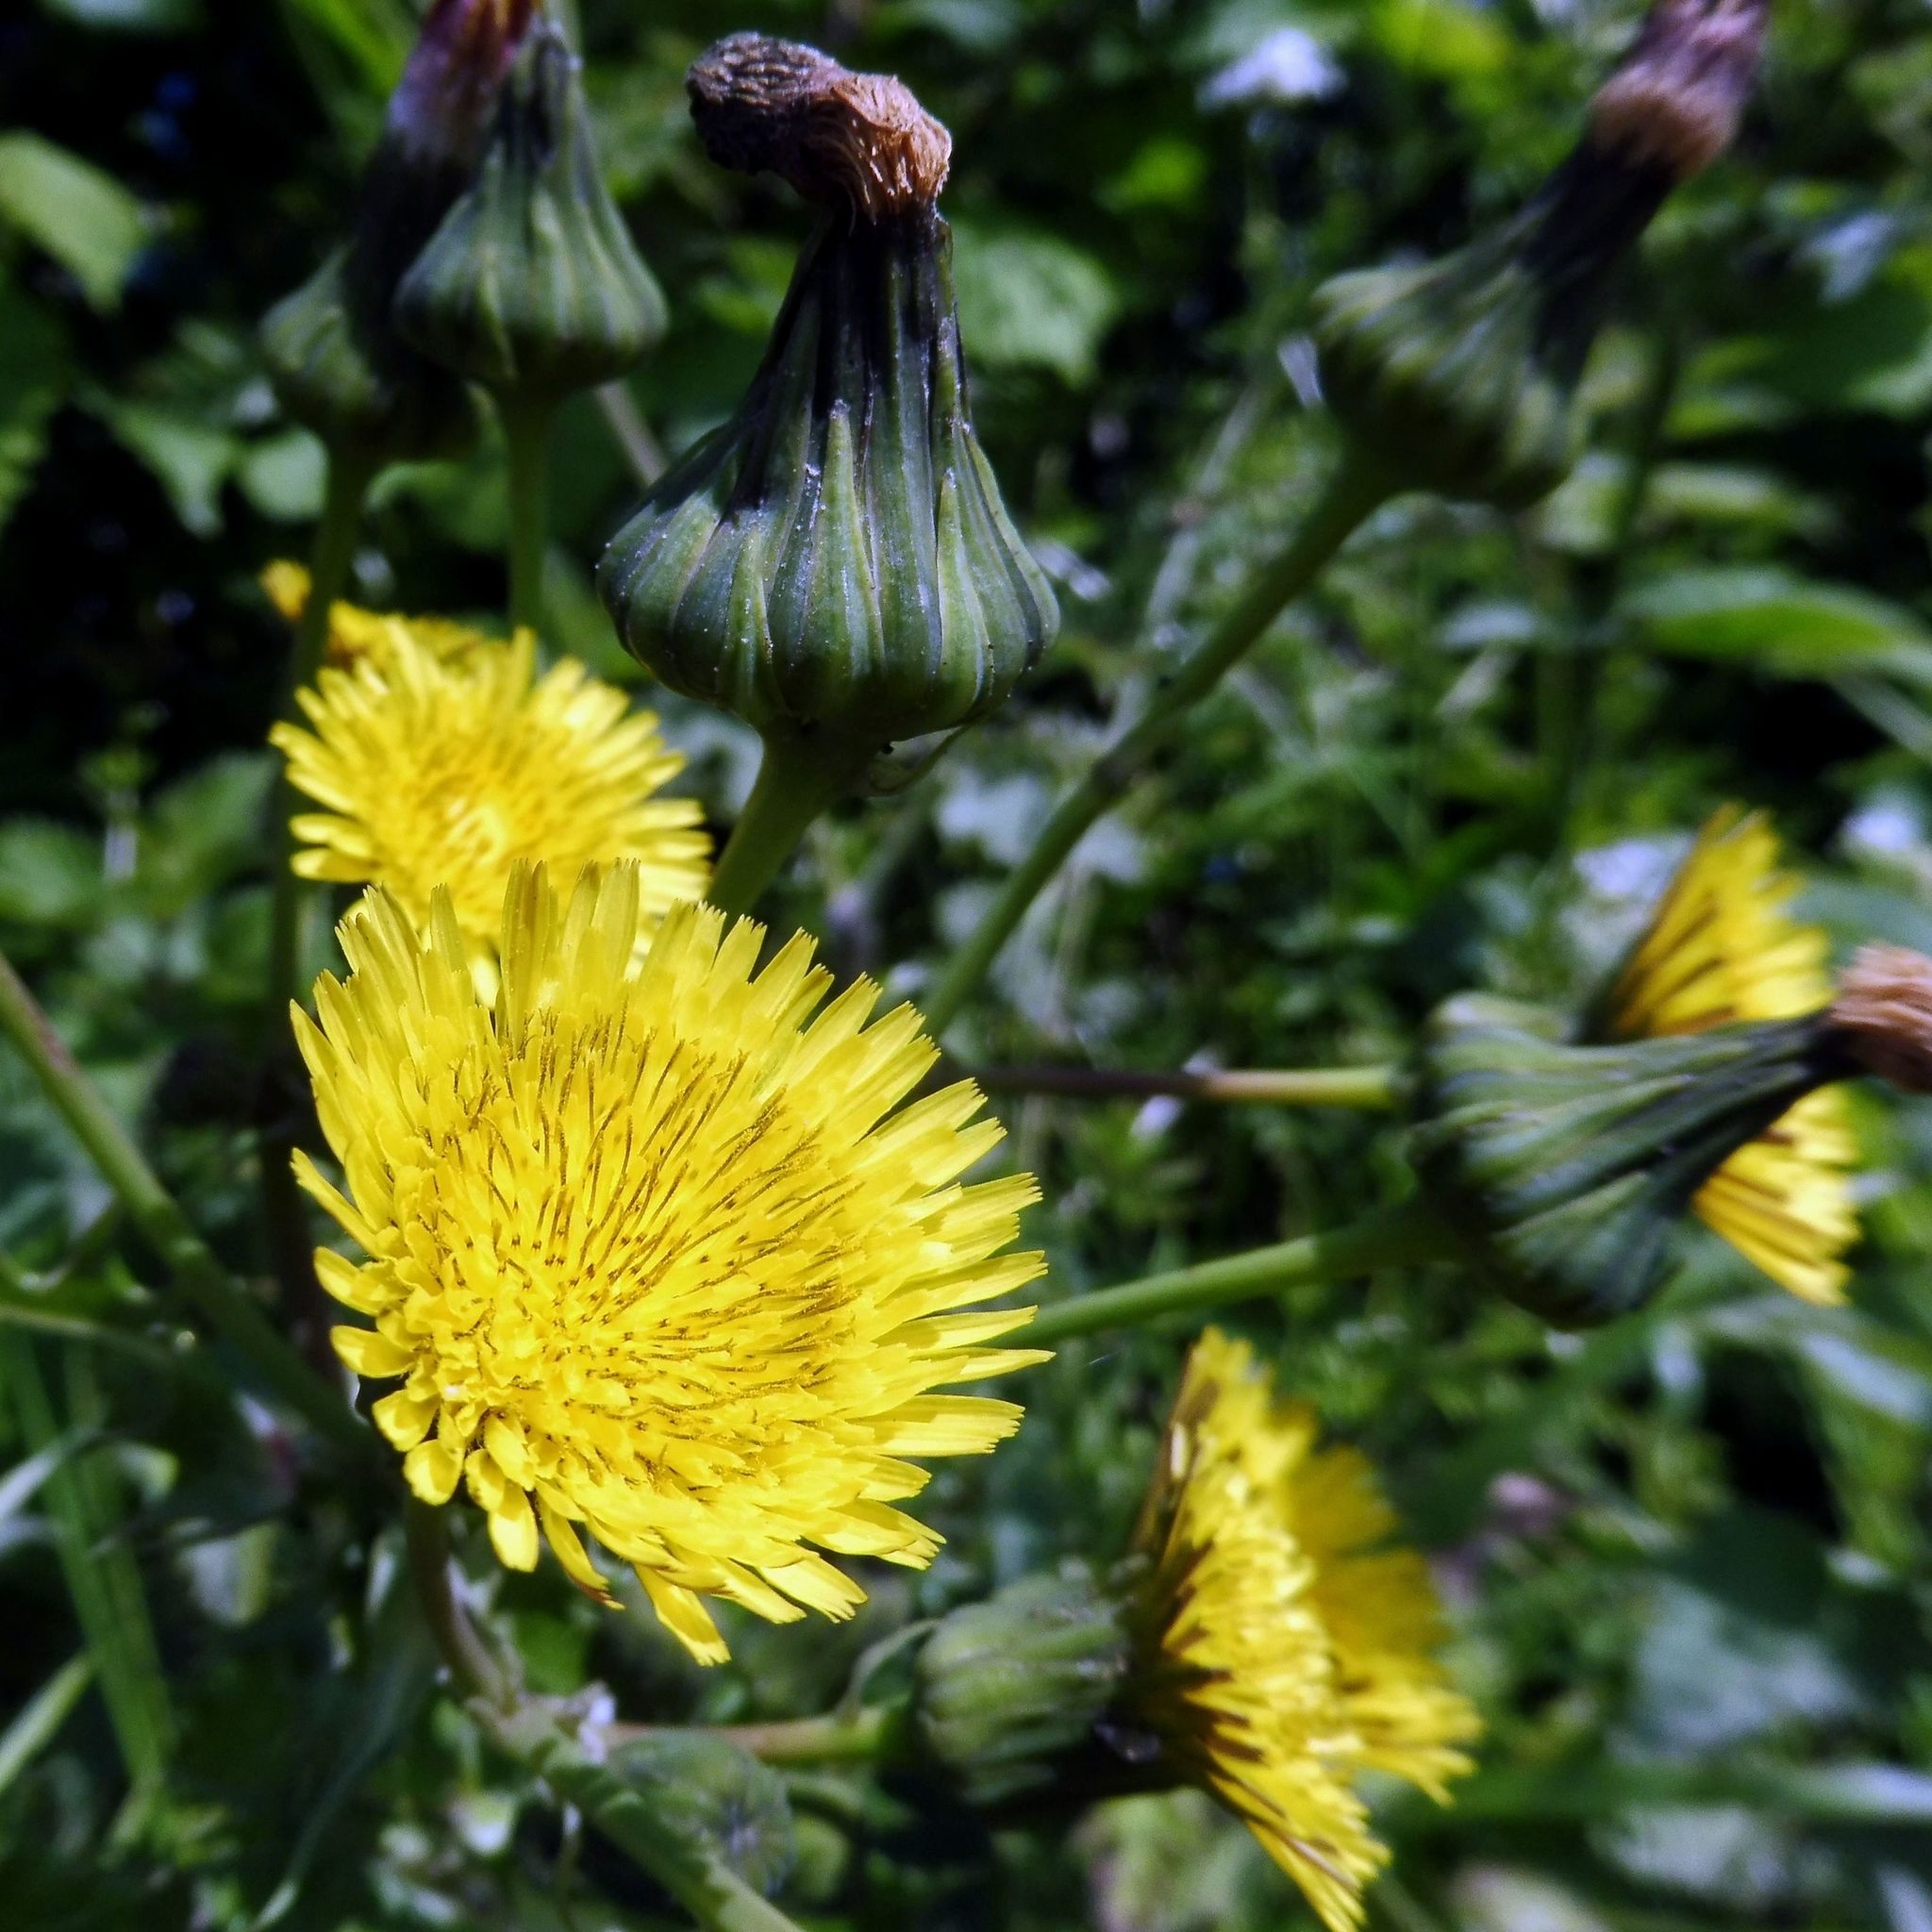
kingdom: Plantae
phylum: Tracheophyta
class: Magnoliopsida
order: Asterales
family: Asteraceae
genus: Sonchus
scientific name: Sonchus asper
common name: Prickly sow-thistle
